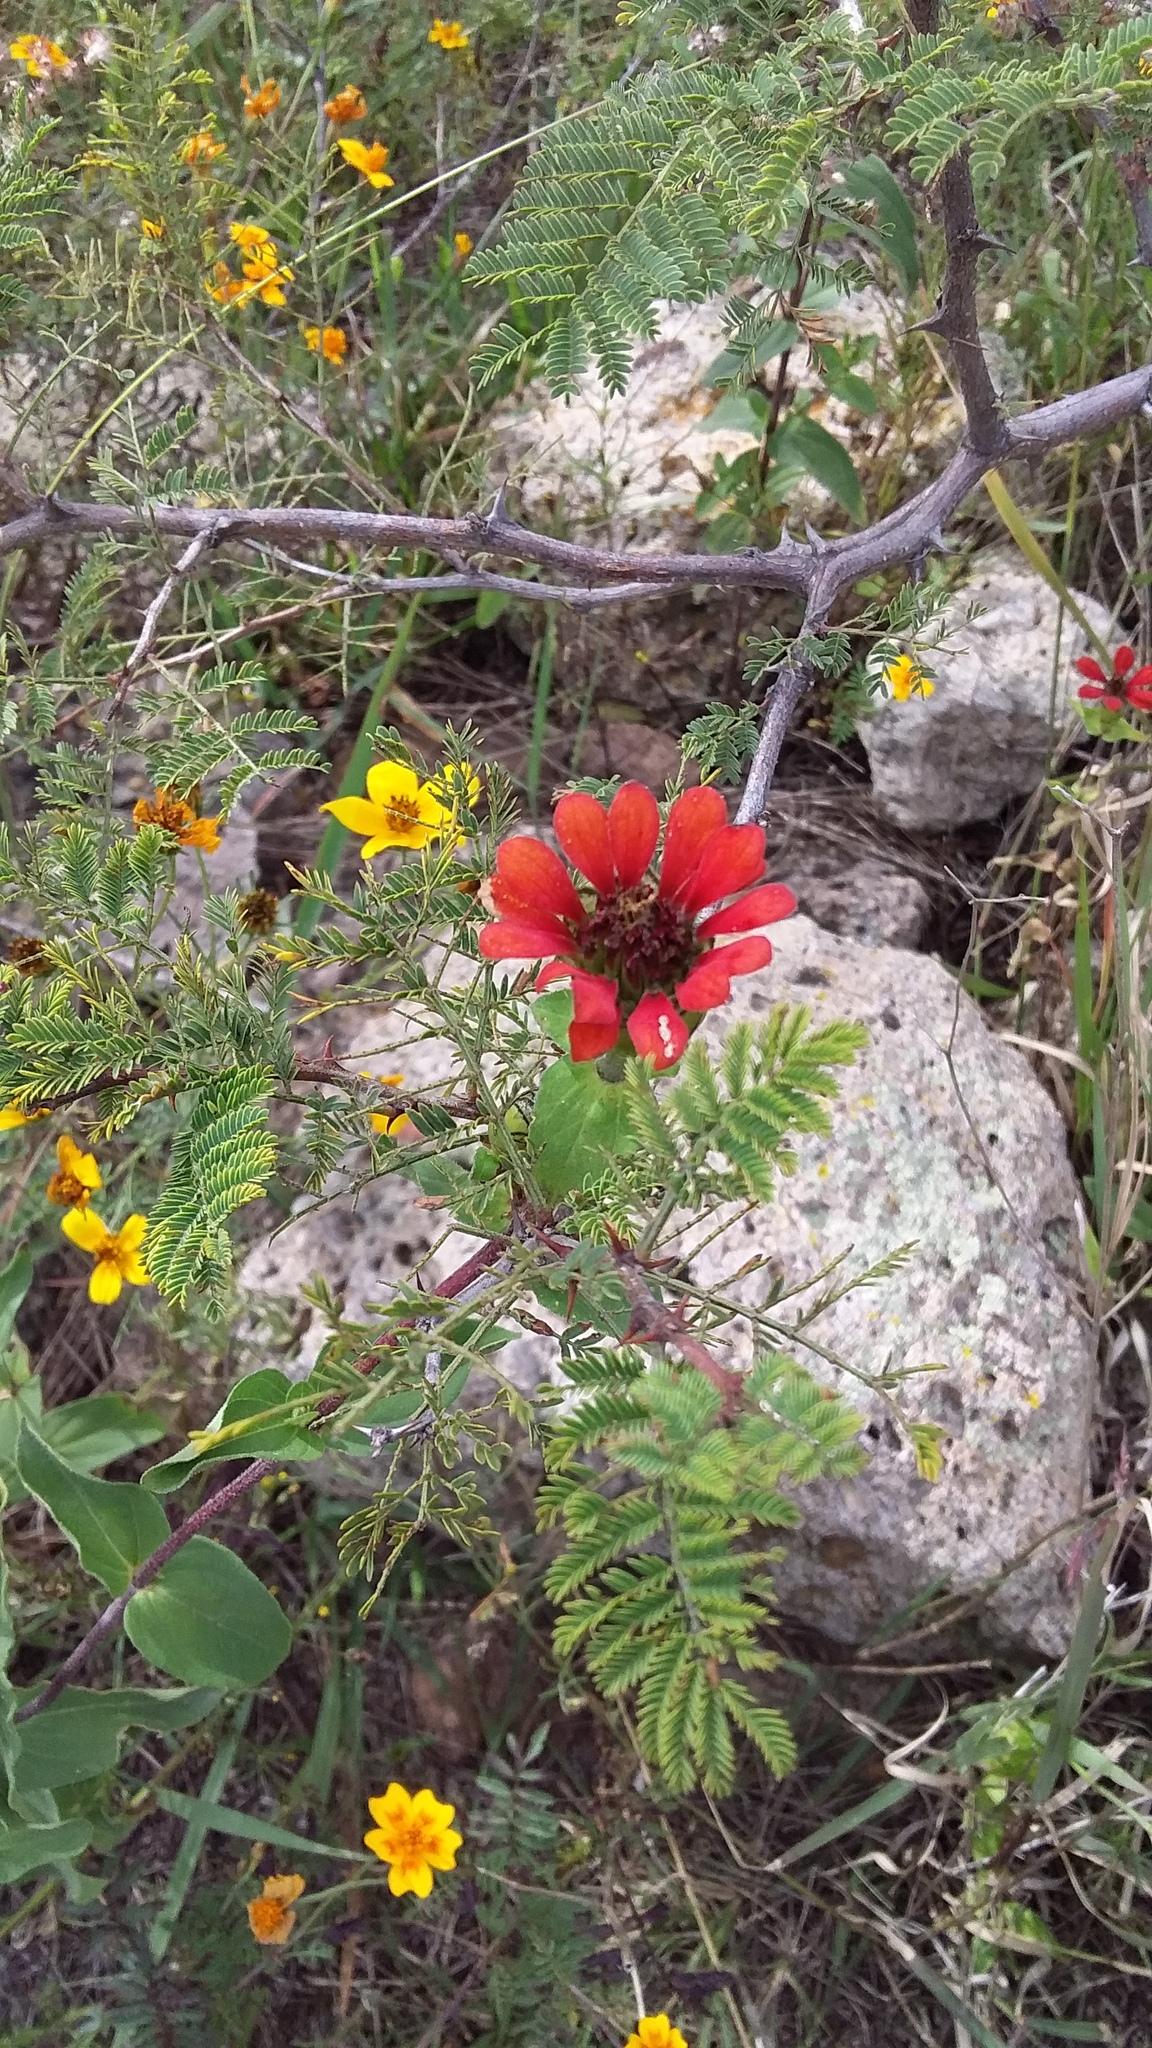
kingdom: Plantae
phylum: Tracheophyta
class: Magnoliopsida
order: Asterales
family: Asteraceae
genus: Zinnia
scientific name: Zinnia peruviana
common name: Peruvian zinnia
